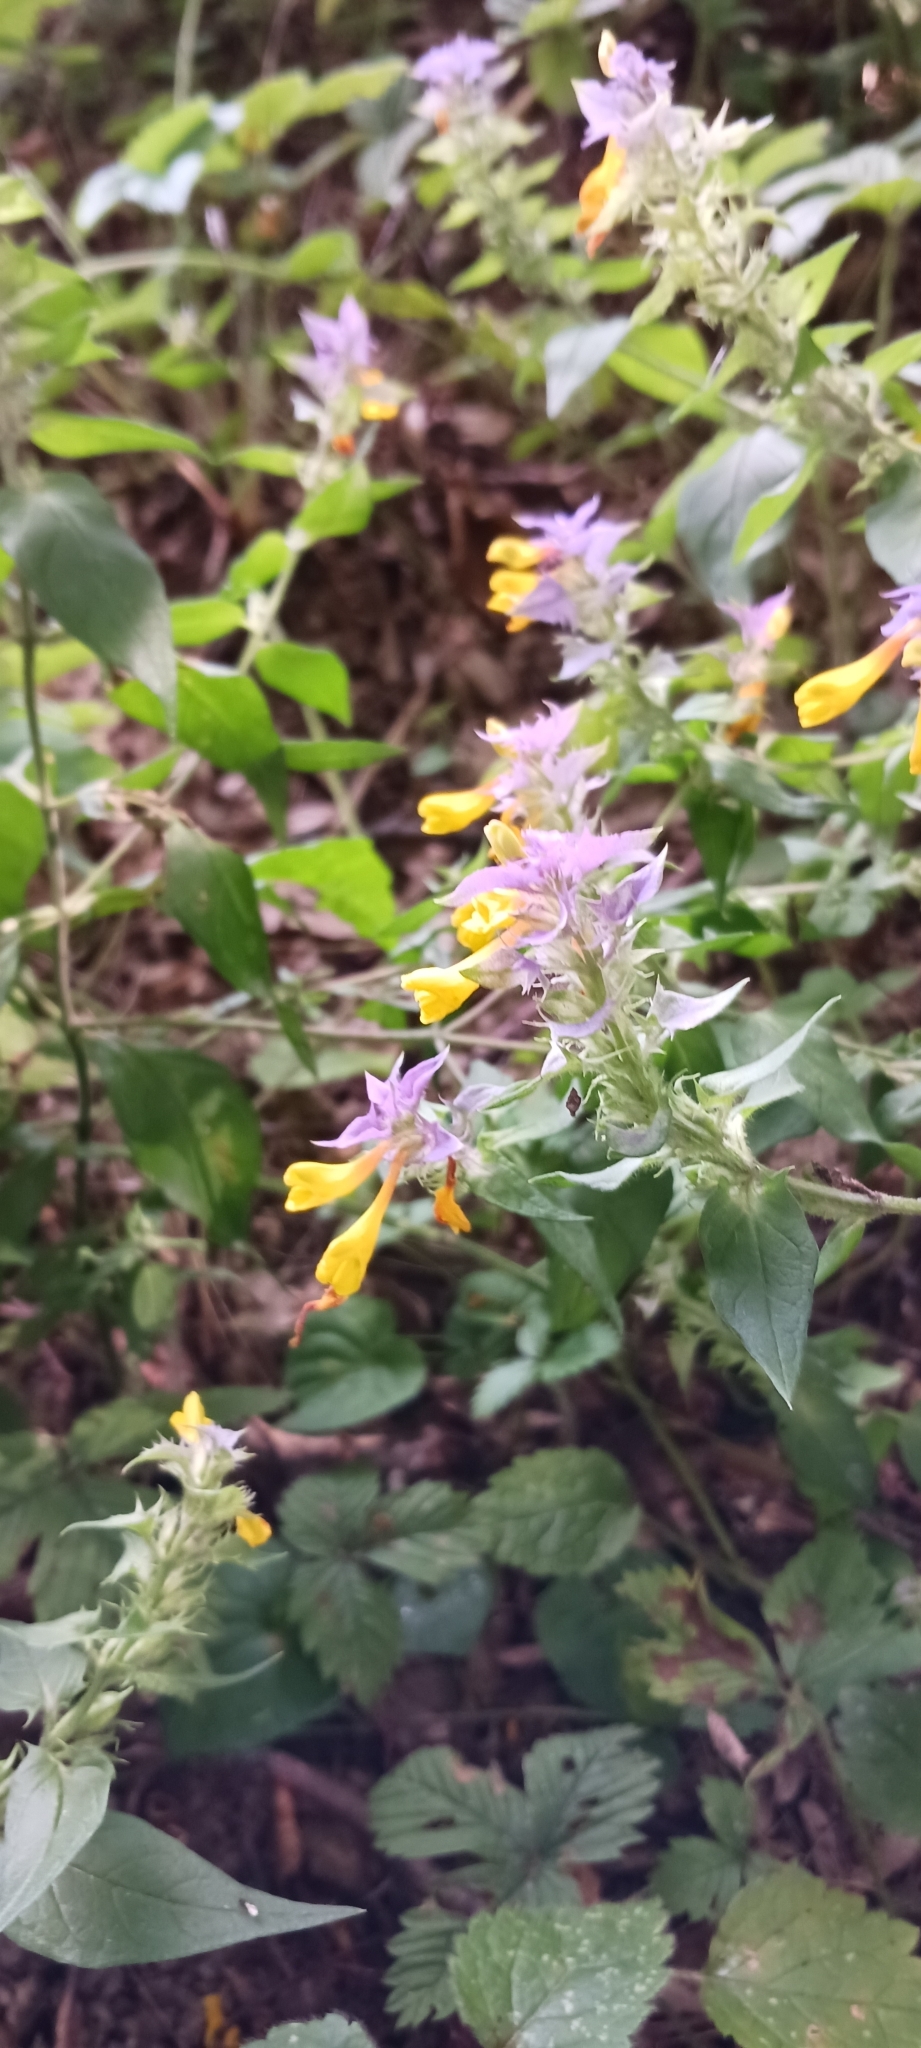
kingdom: Plantae
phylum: Tracheophyta
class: Magnoliopsida
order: Lamiales
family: Orobanchaceae
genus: Melampyrum
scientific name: Melampyrum nemorosum
